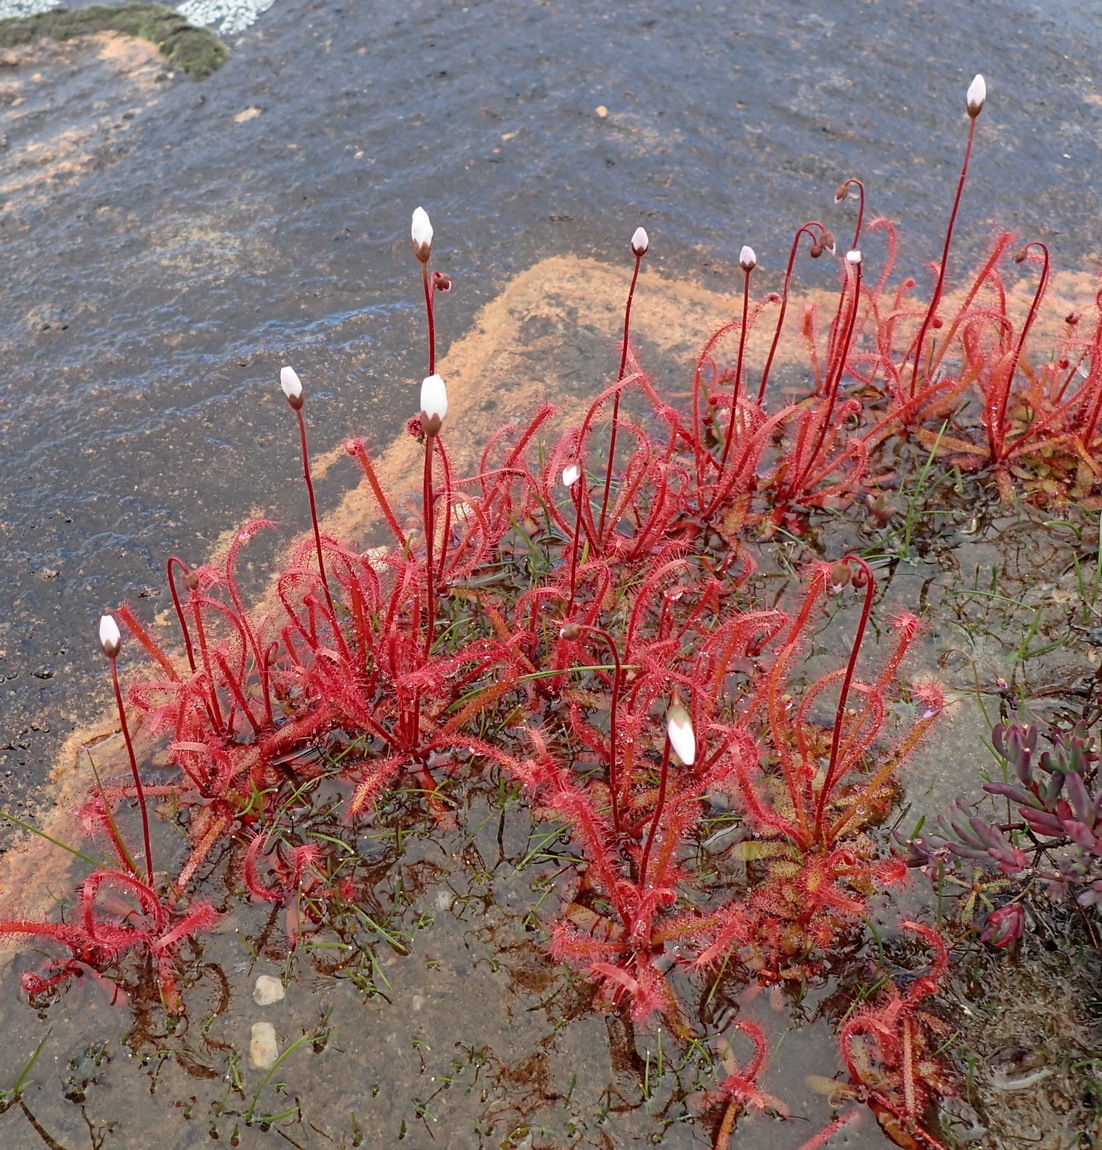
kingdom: Plantae
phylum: Tracheophyta
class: Magnoliopsida
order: Caryophyllales
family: Droseraceae
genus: Drosera
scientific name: Drosera alba
